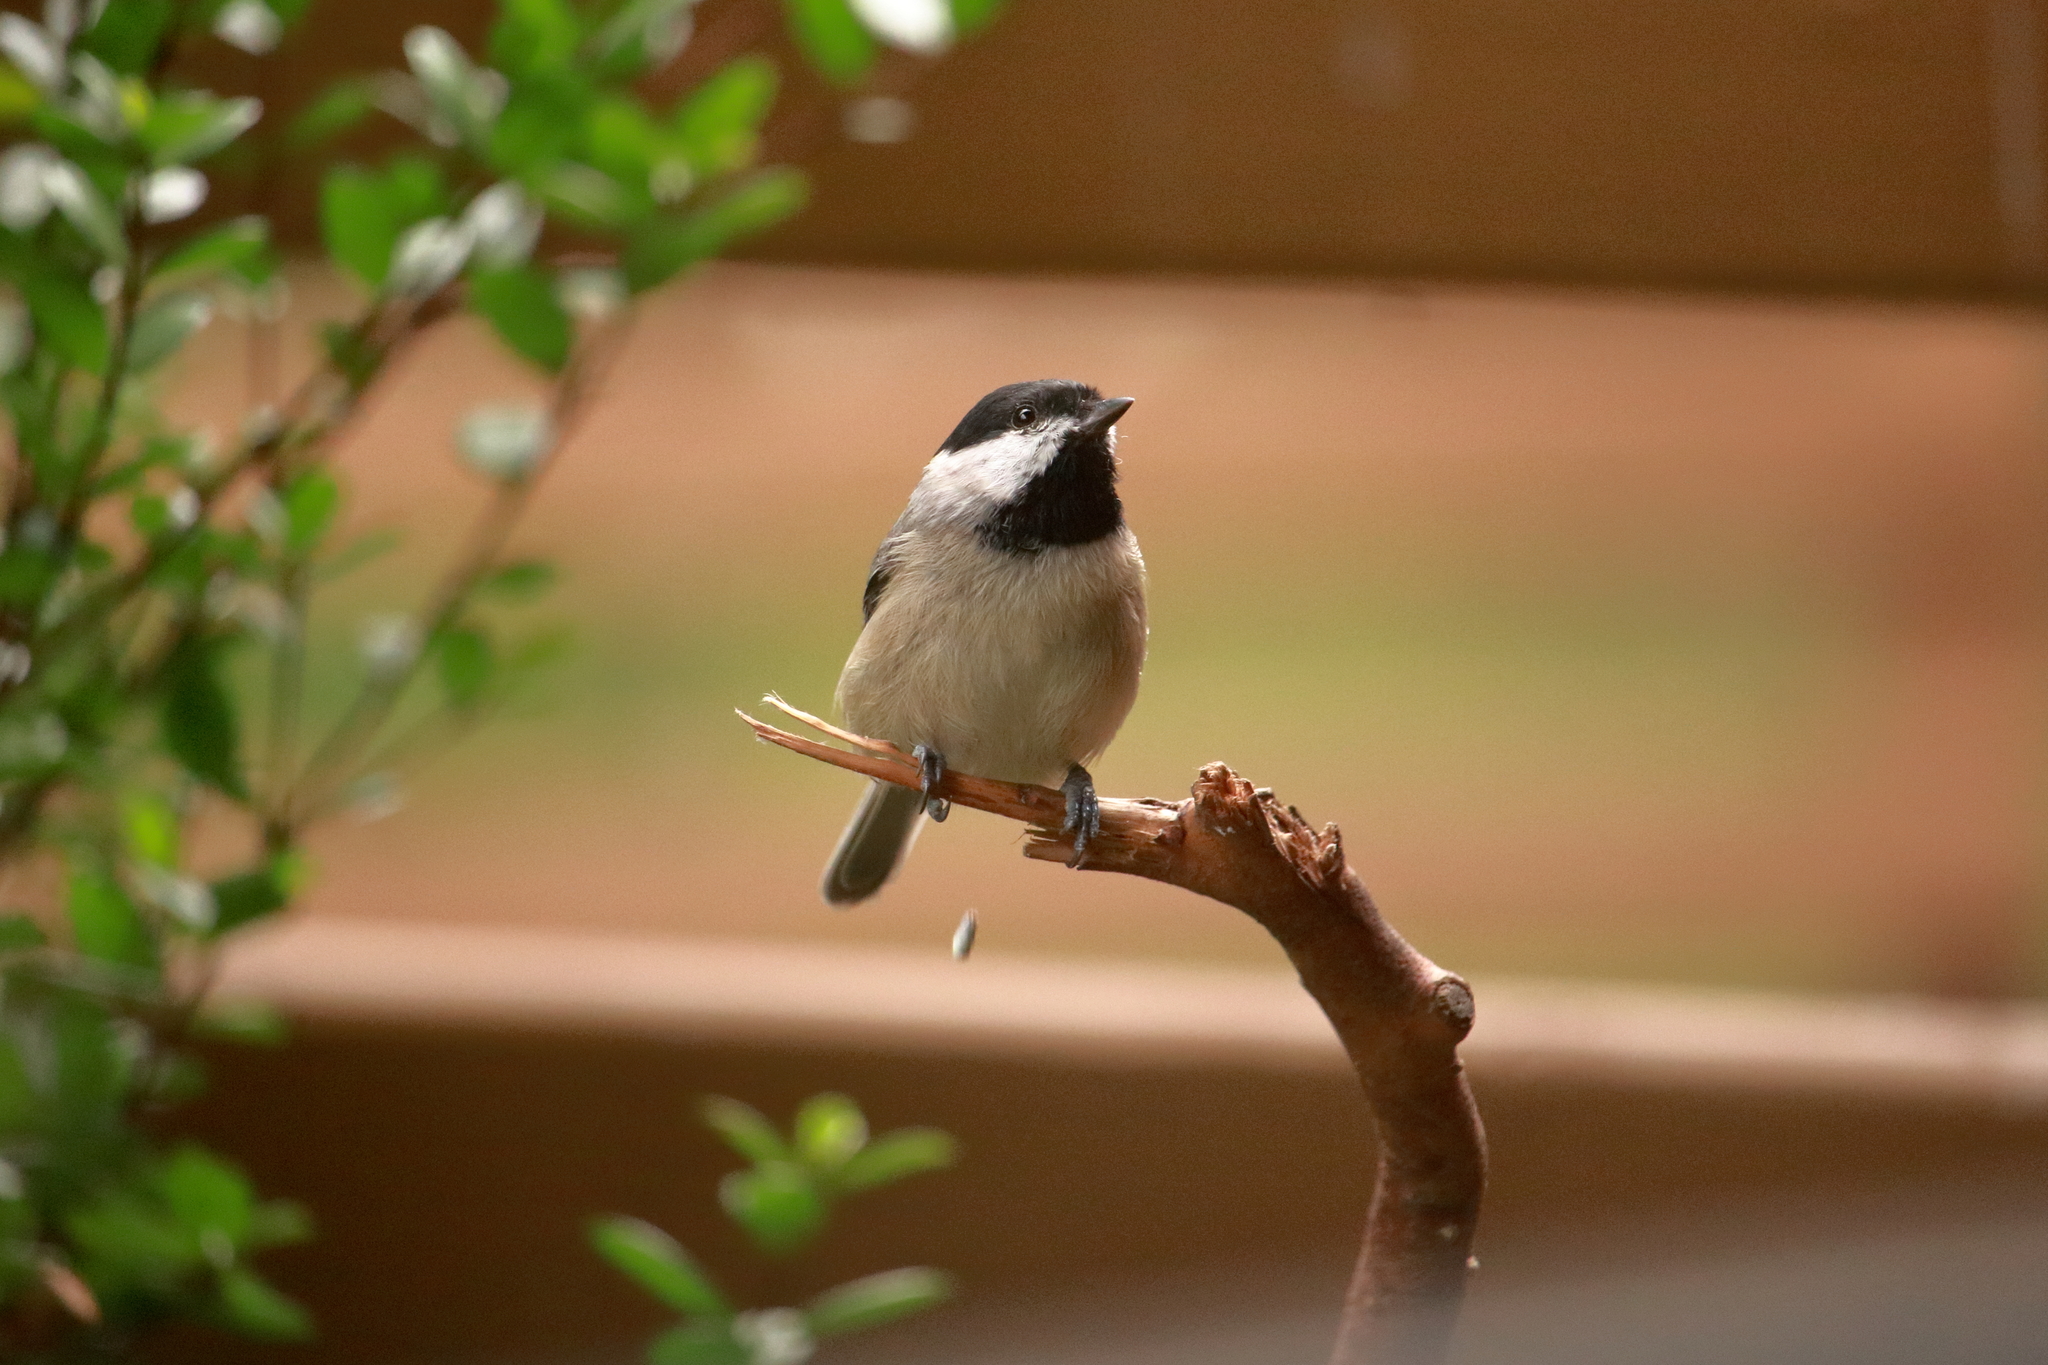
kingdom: Animalia
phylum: Chordata
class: Aves
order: Passeriformes
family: Paridae
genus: Poecile
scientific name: Poecile carolinensis
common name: Carolina chickadee
